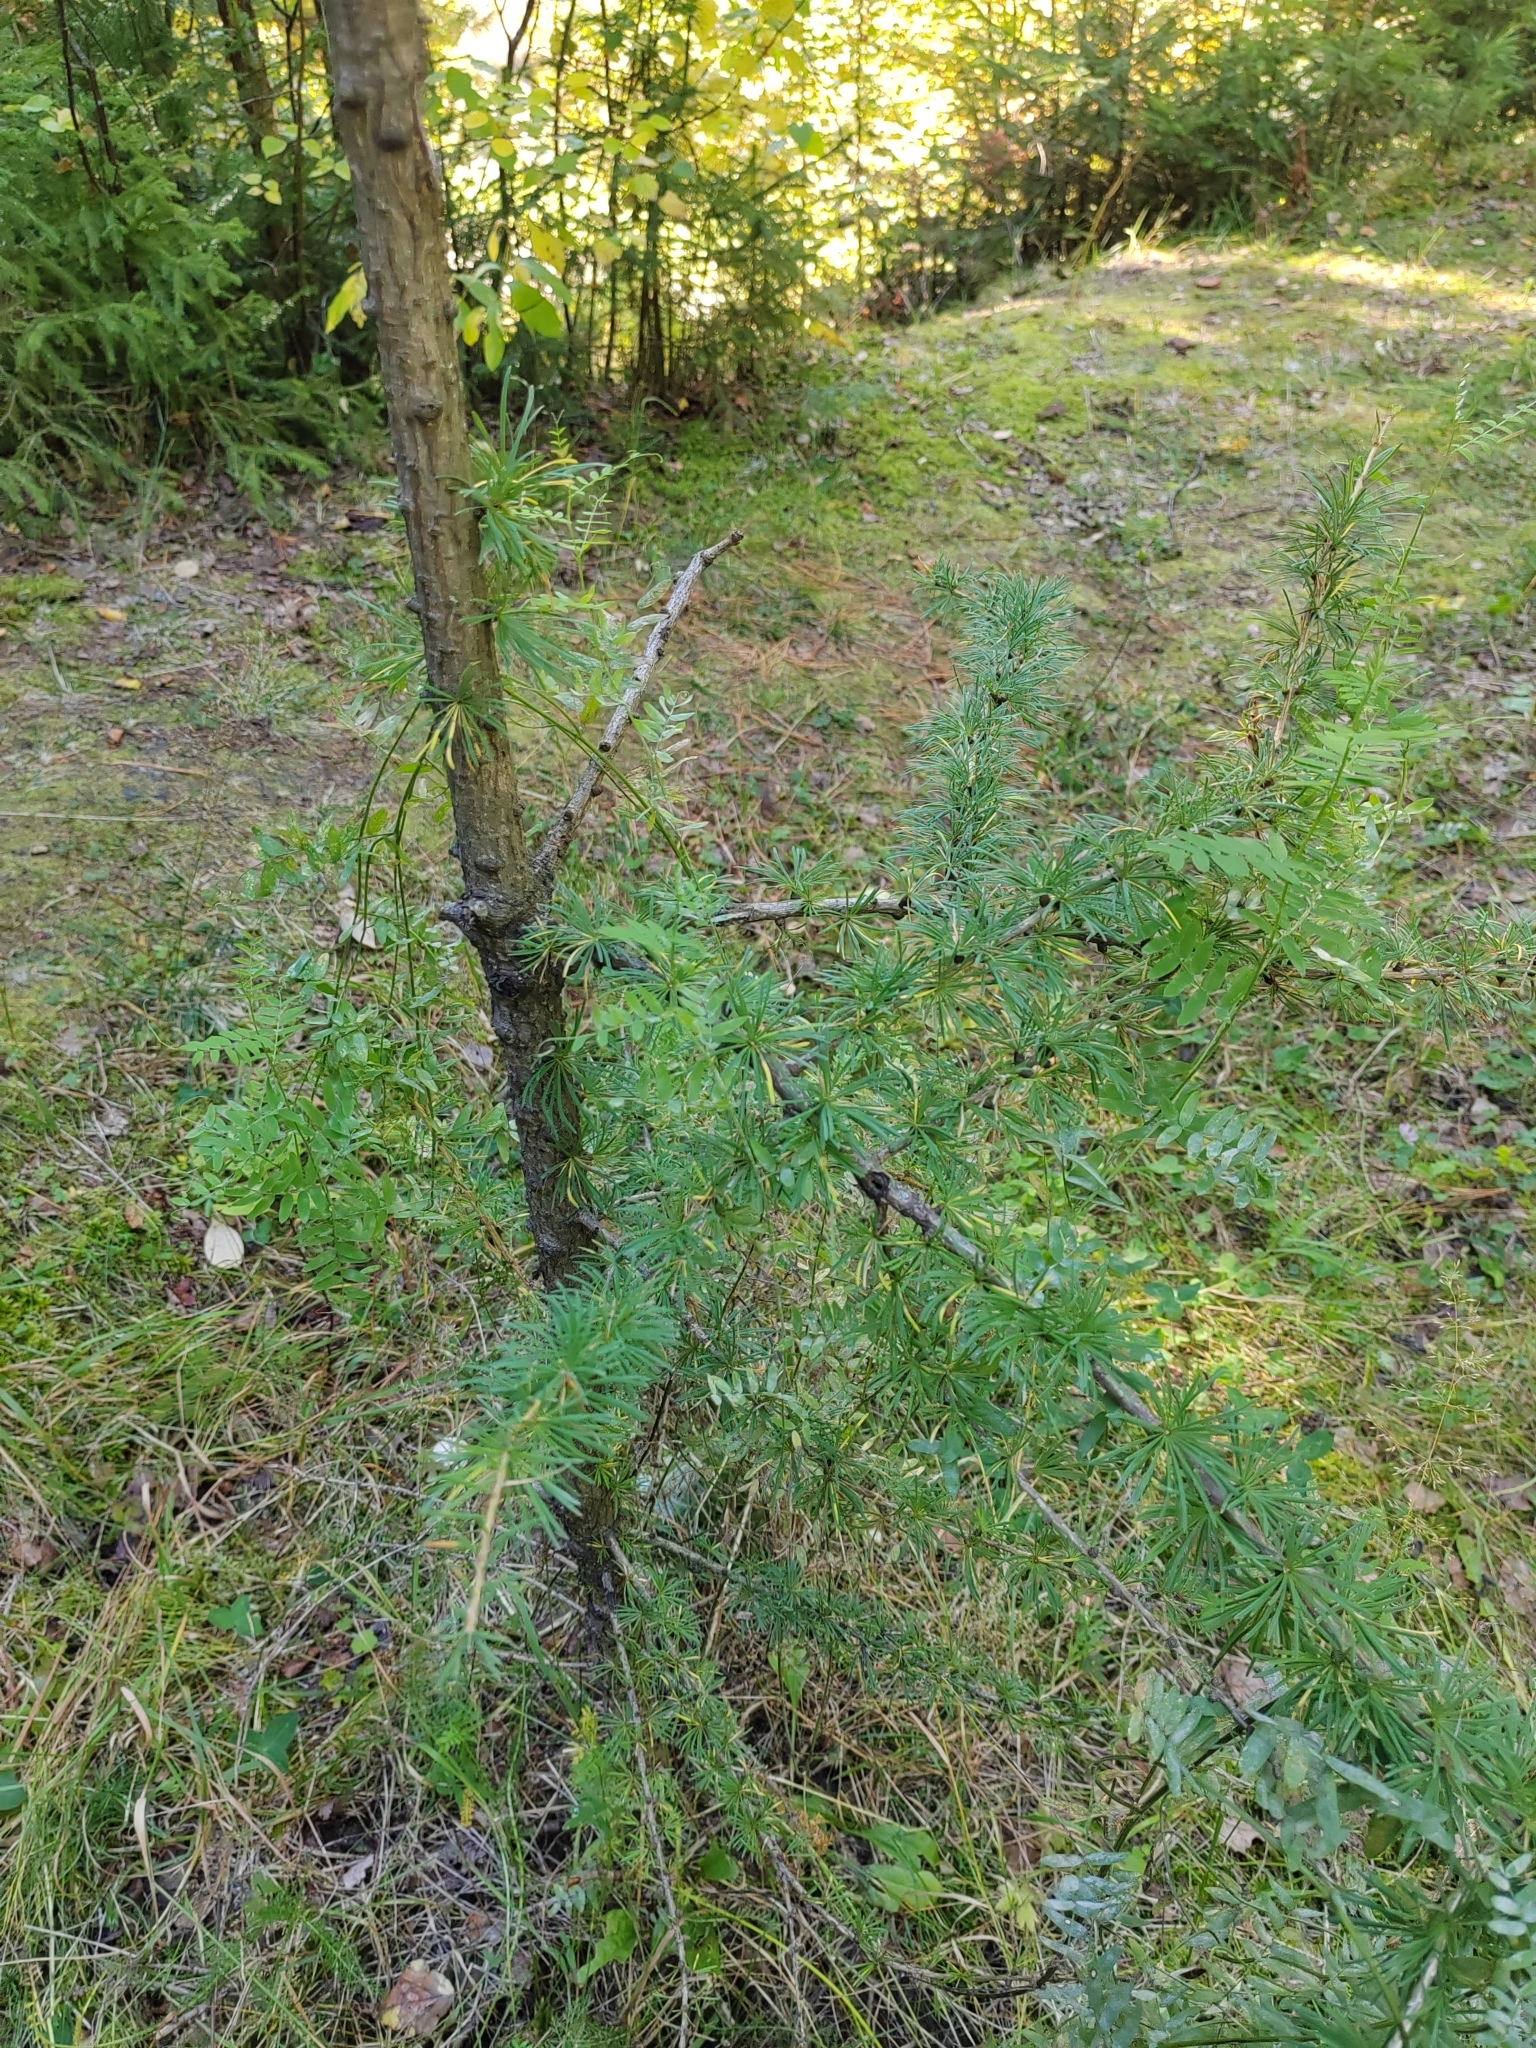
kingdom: Plantae
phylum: Tracheophyta
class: Pinopsida
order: Pinales
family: Pinaceae
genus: Larix
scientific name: Larix sibirica
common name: Siberian larch
